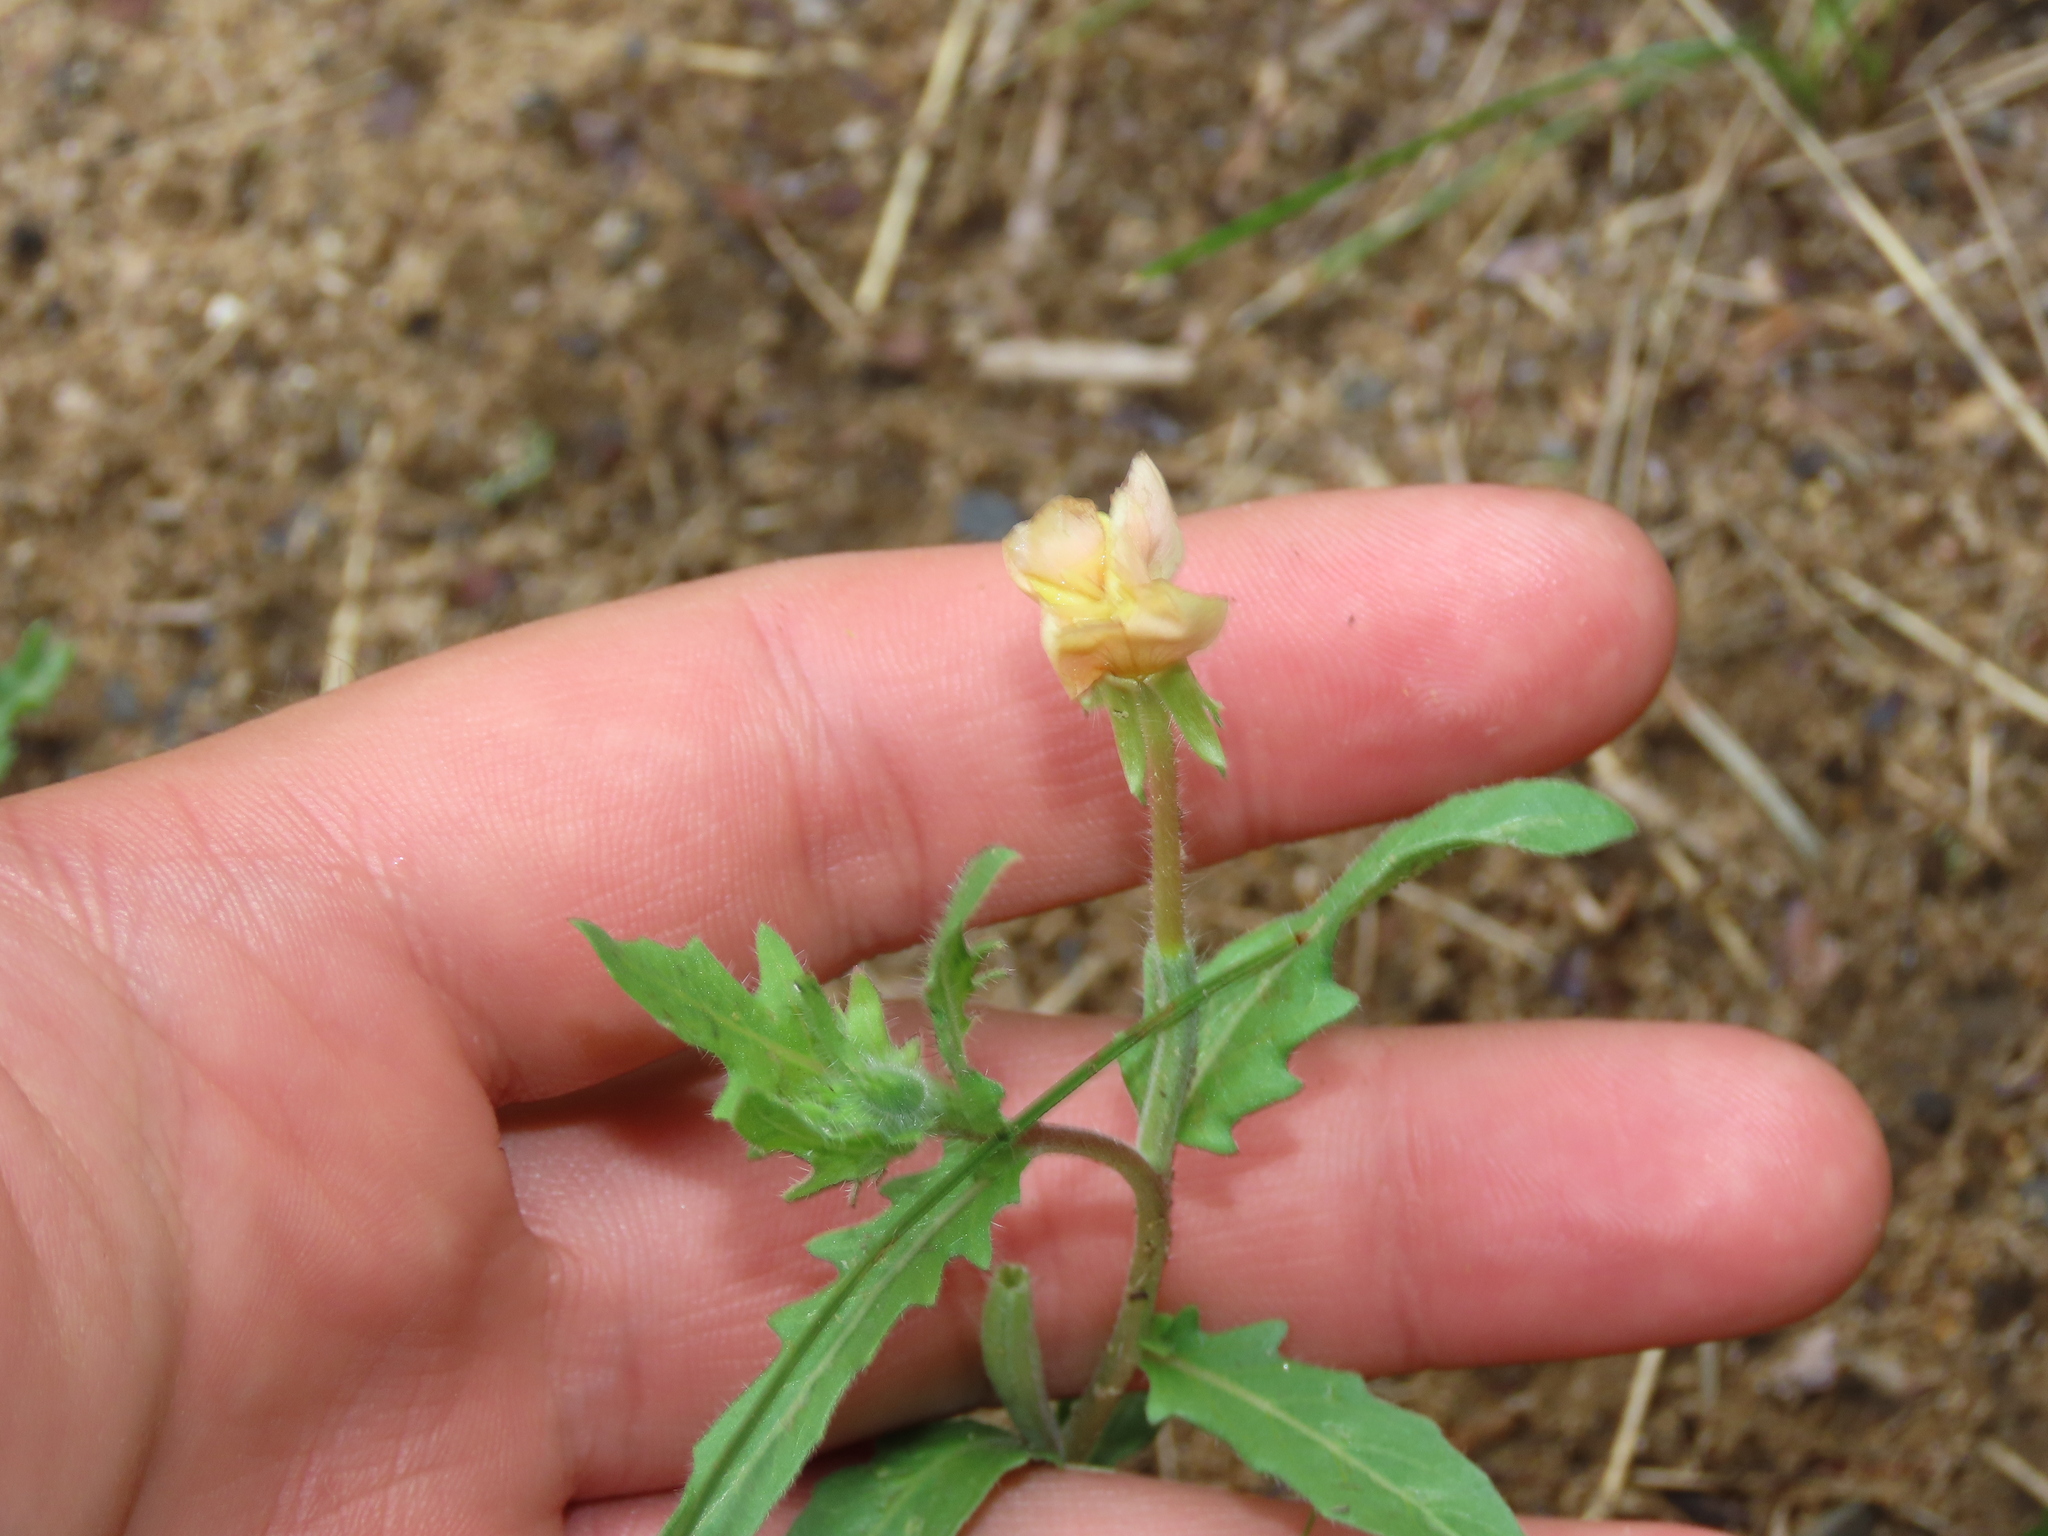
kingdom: Plantae
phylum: Tracheophyta
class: Magnoliopsida
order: Myrtales
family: Onagraceae
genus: Oenothera
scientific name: Oenothera laciniata
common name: Cut-leaved evening-primrose
